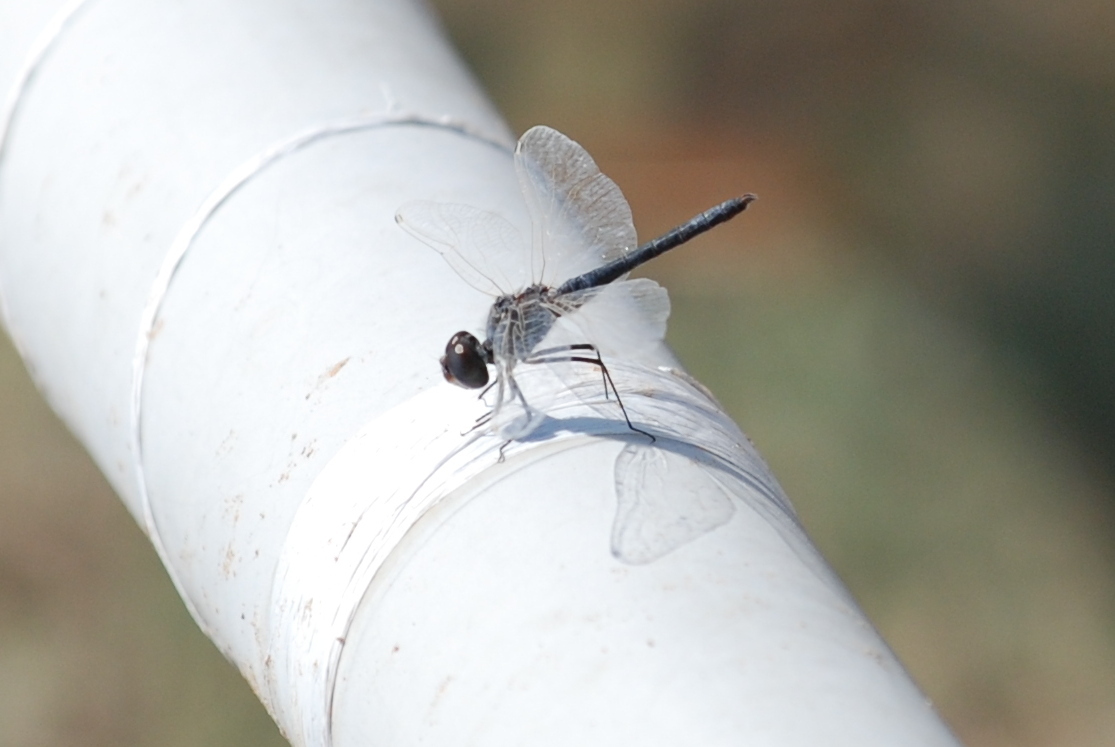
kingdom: Animalia
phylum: Arthropoda
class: Insecta
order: Odonata
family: Libellulidae
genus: Selysiothemis
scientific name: Selysiothemis nigra
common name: Black pennant
